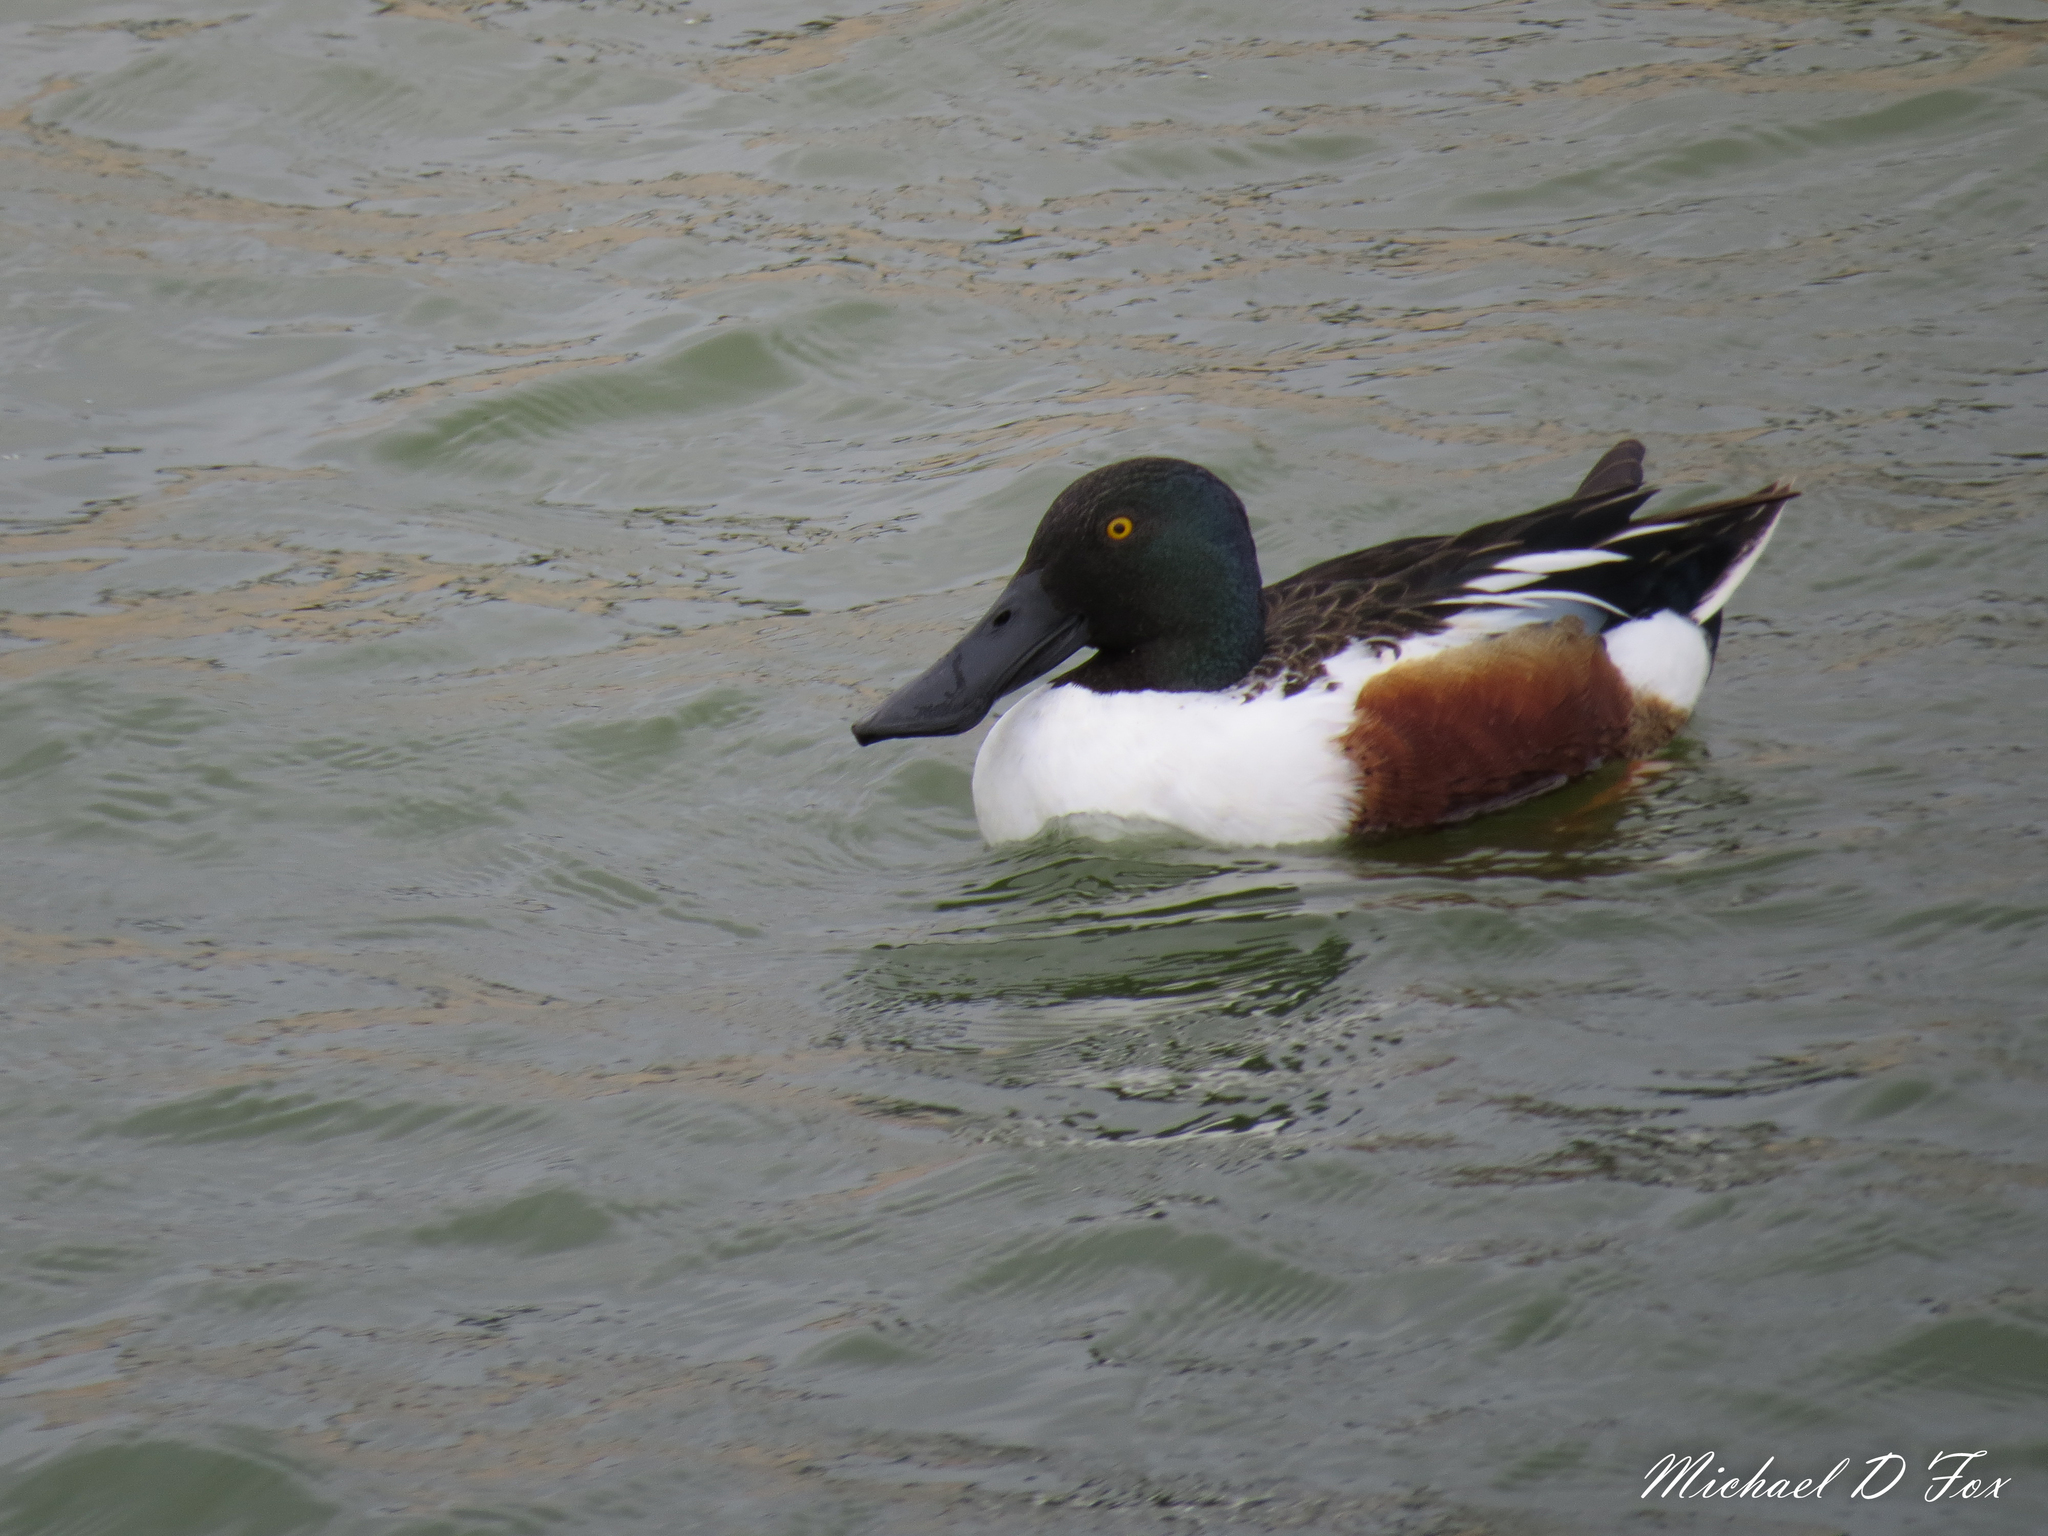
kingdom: Animalia
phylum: Chordata
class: Aves
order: Anseriformes
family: Anatidae
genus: Spatula
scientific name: Spatula clypeata
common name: Northern shoveler
